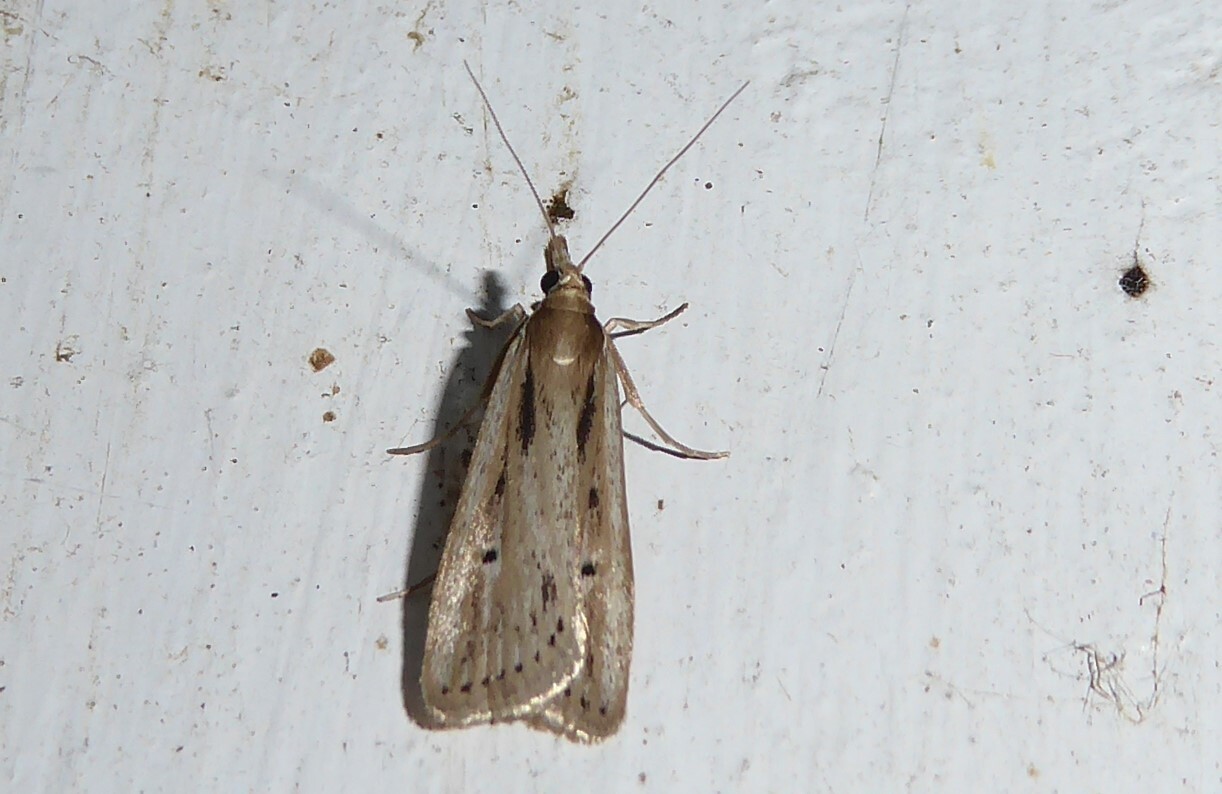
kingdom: Animalia
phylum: Arthropoda
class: Insecta
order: Lepidoptera
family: Crambidae
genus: Eudonia
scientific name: Eudonia sabulosella
